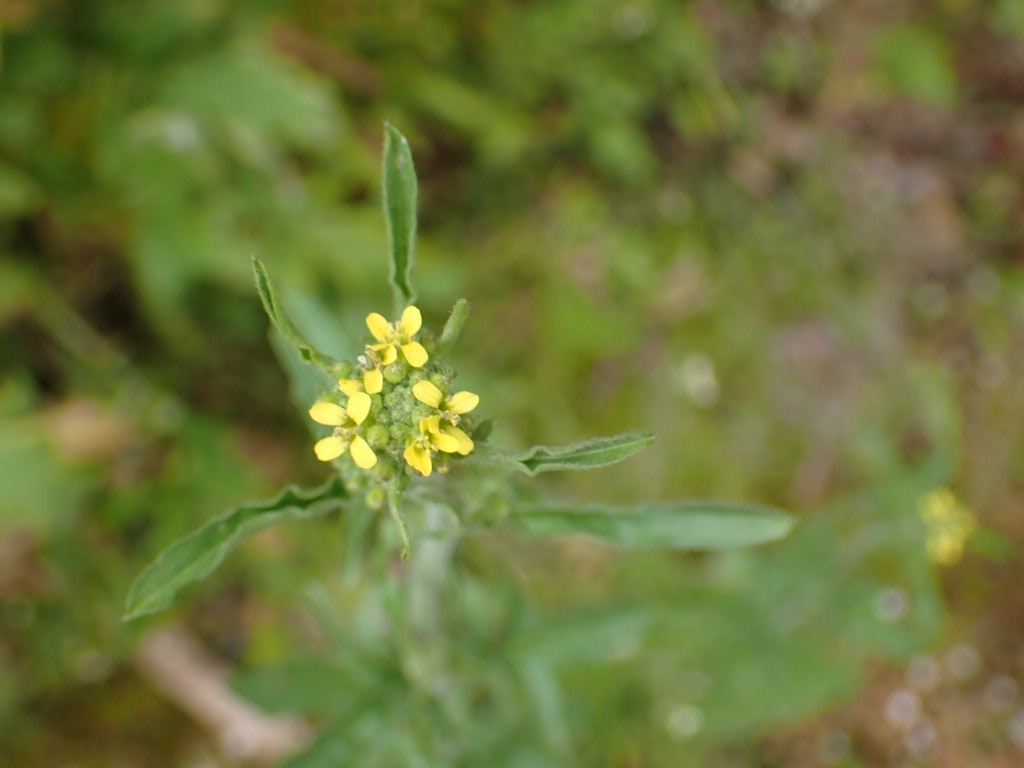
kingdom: Plantae
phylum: Tracheophyta
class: Magnoliopsida
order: Brassicales
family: Brassicaceae
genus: Sisymbrium
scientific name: Sisymbrium officinale
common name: Hedge mustard
